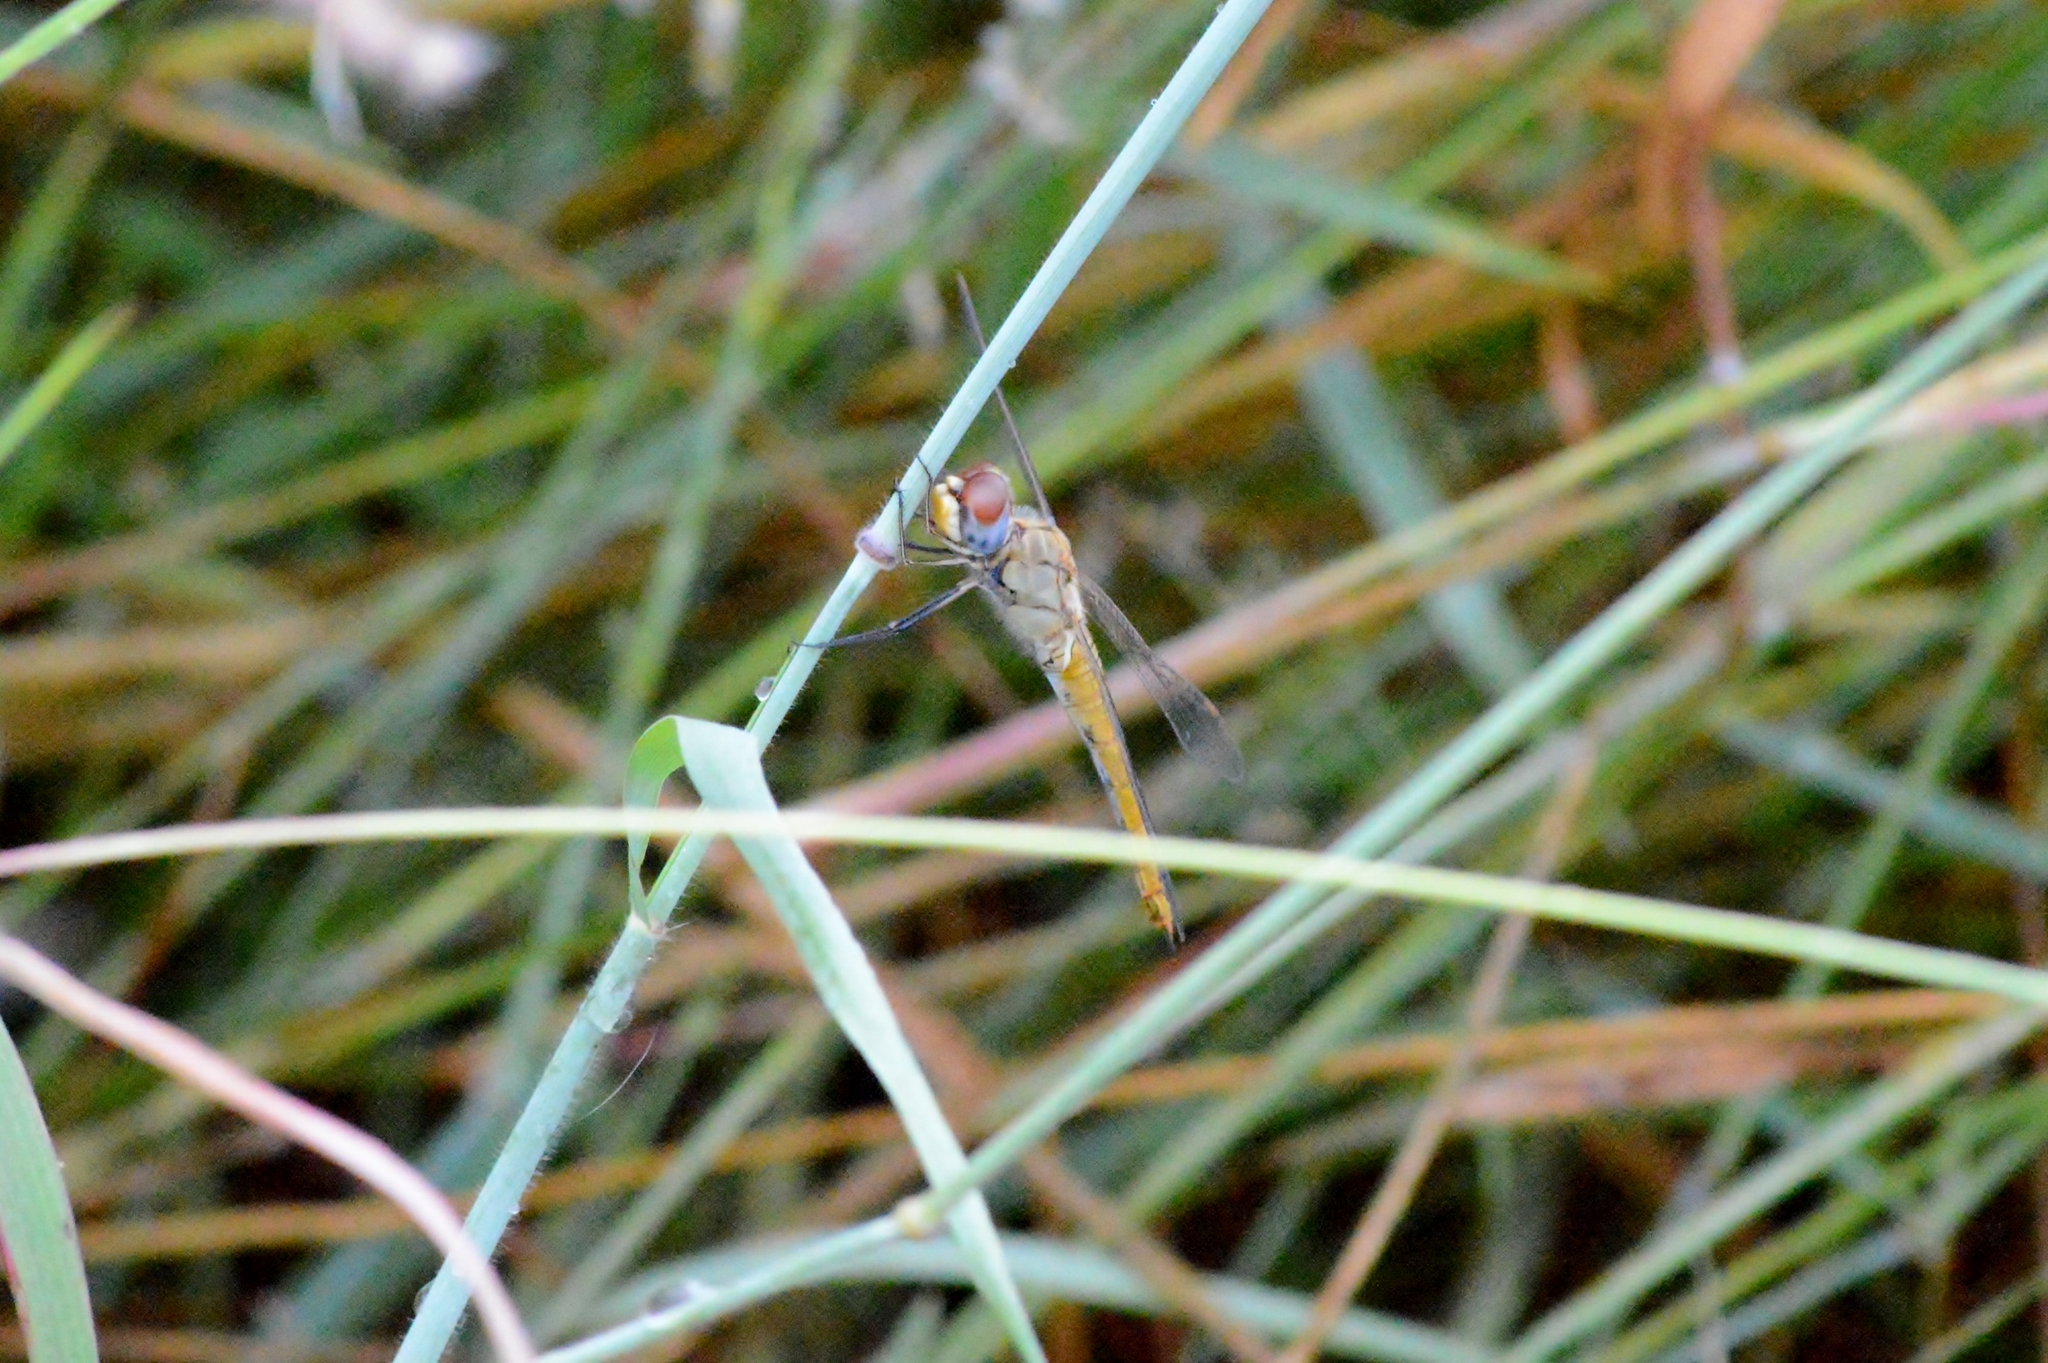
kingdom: Animalia
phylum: Arthropoda
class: Insecta
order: Odonata
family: Libellulidae
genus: Pantala
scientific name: Pantala flavescens
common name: Wandering glider
